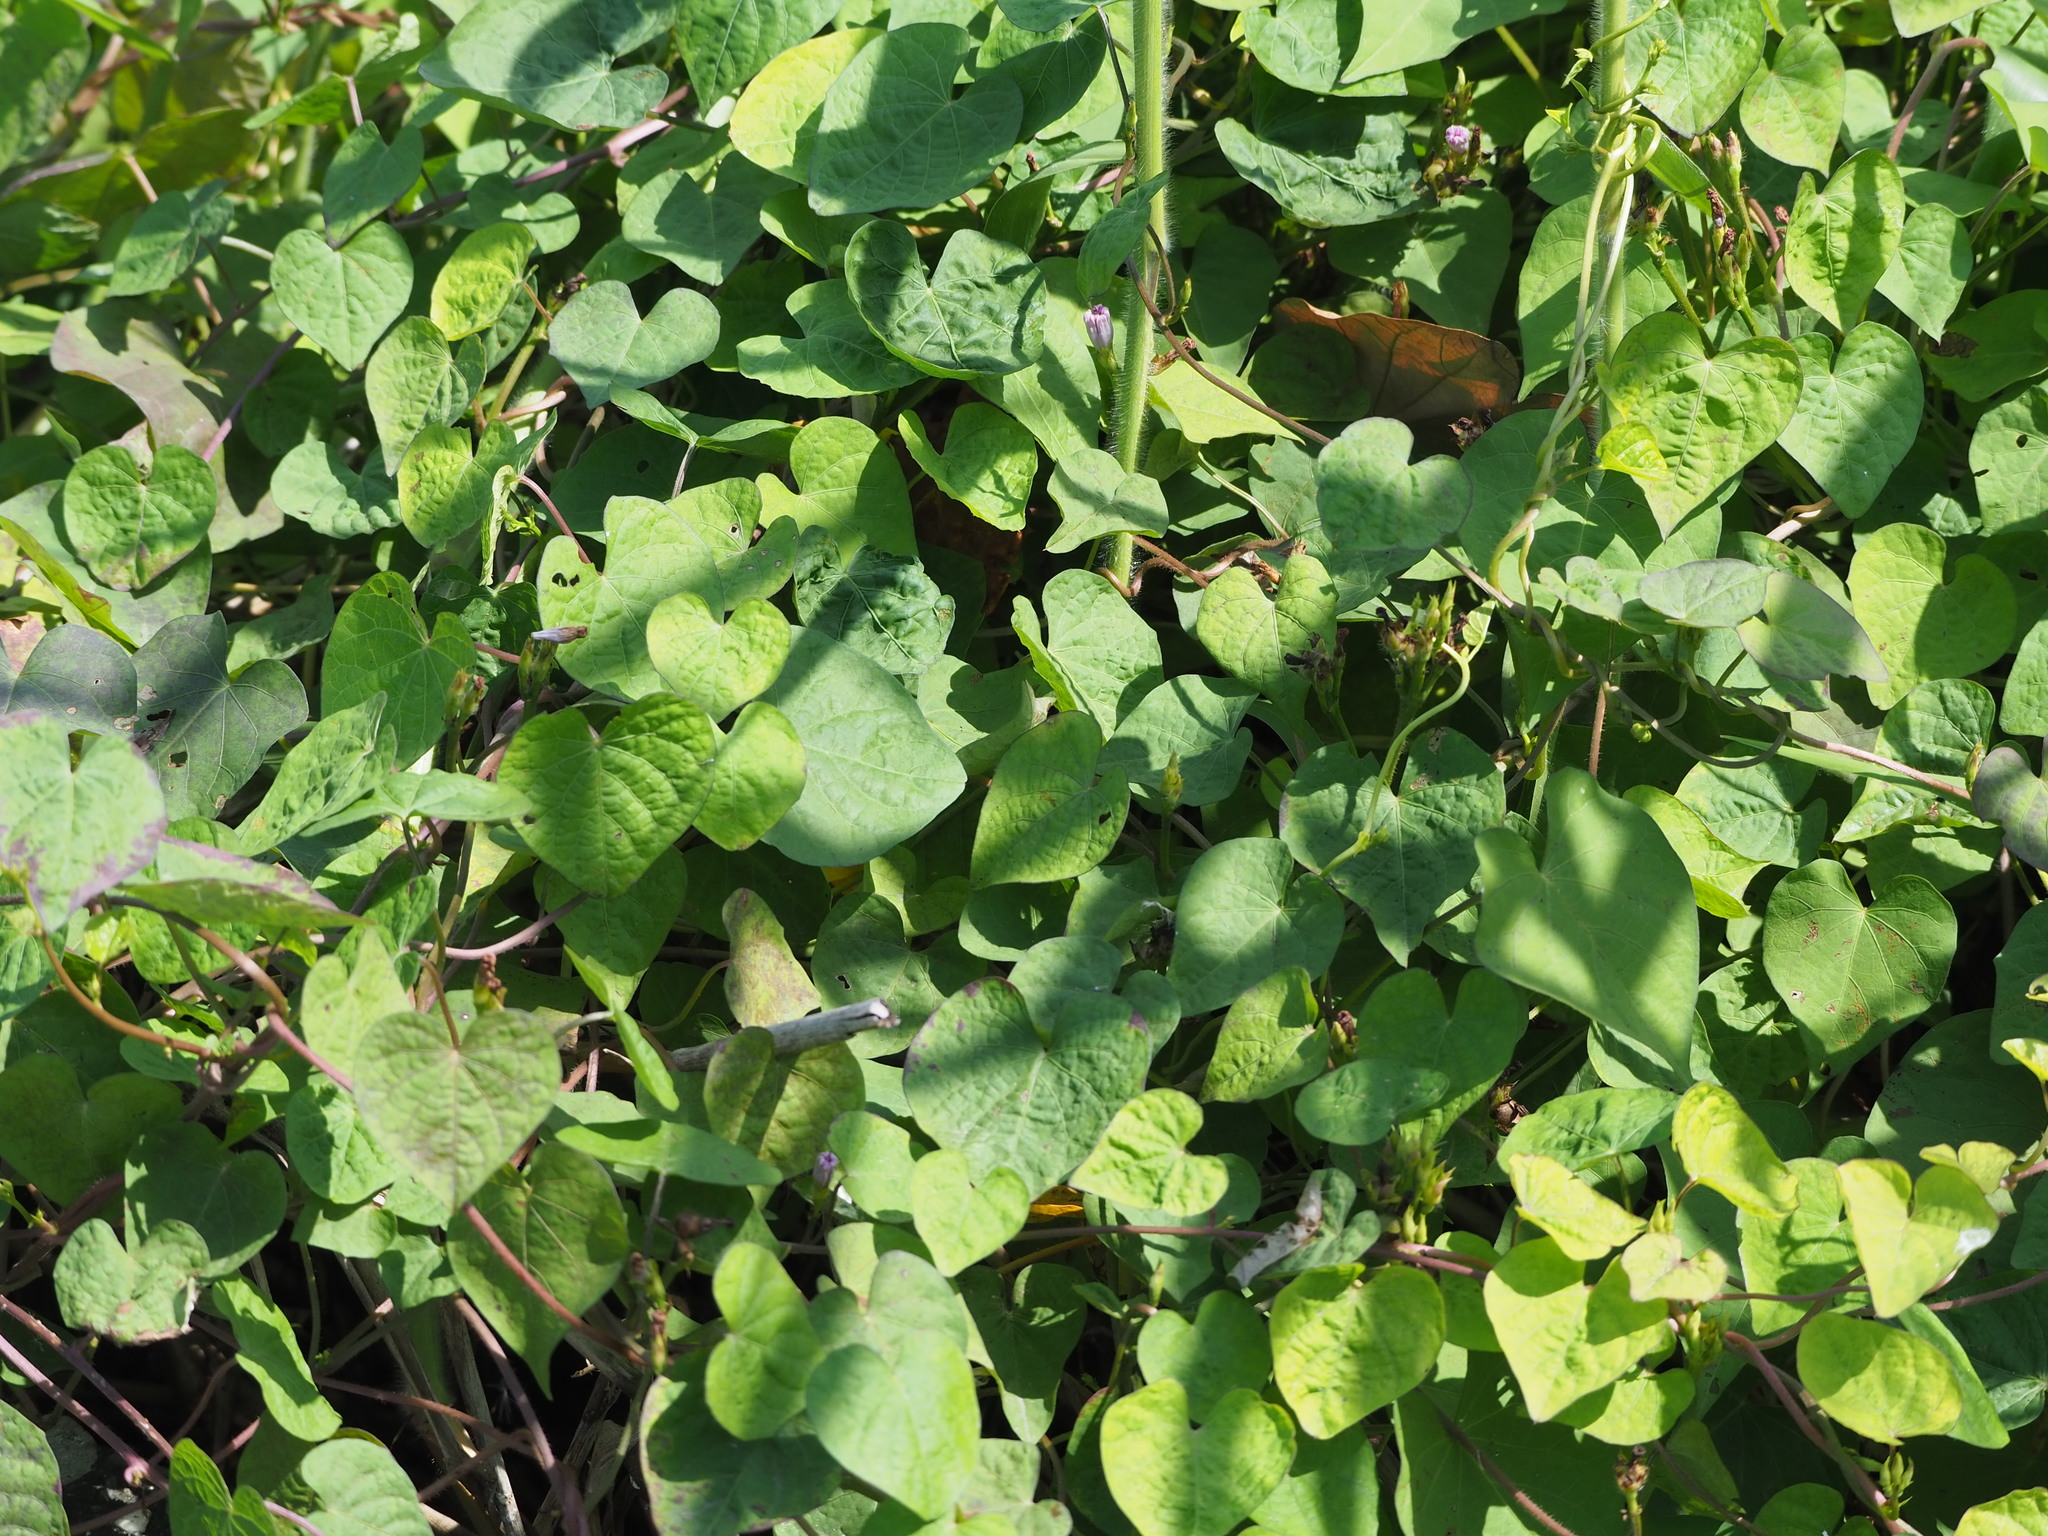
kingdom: Plantae
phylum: Tracheophyta
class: Magnoliopsida
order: Solanales
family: Convolvulaceae
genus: Ipomoea
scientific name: Ipomoea triloba
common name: Little-bell
